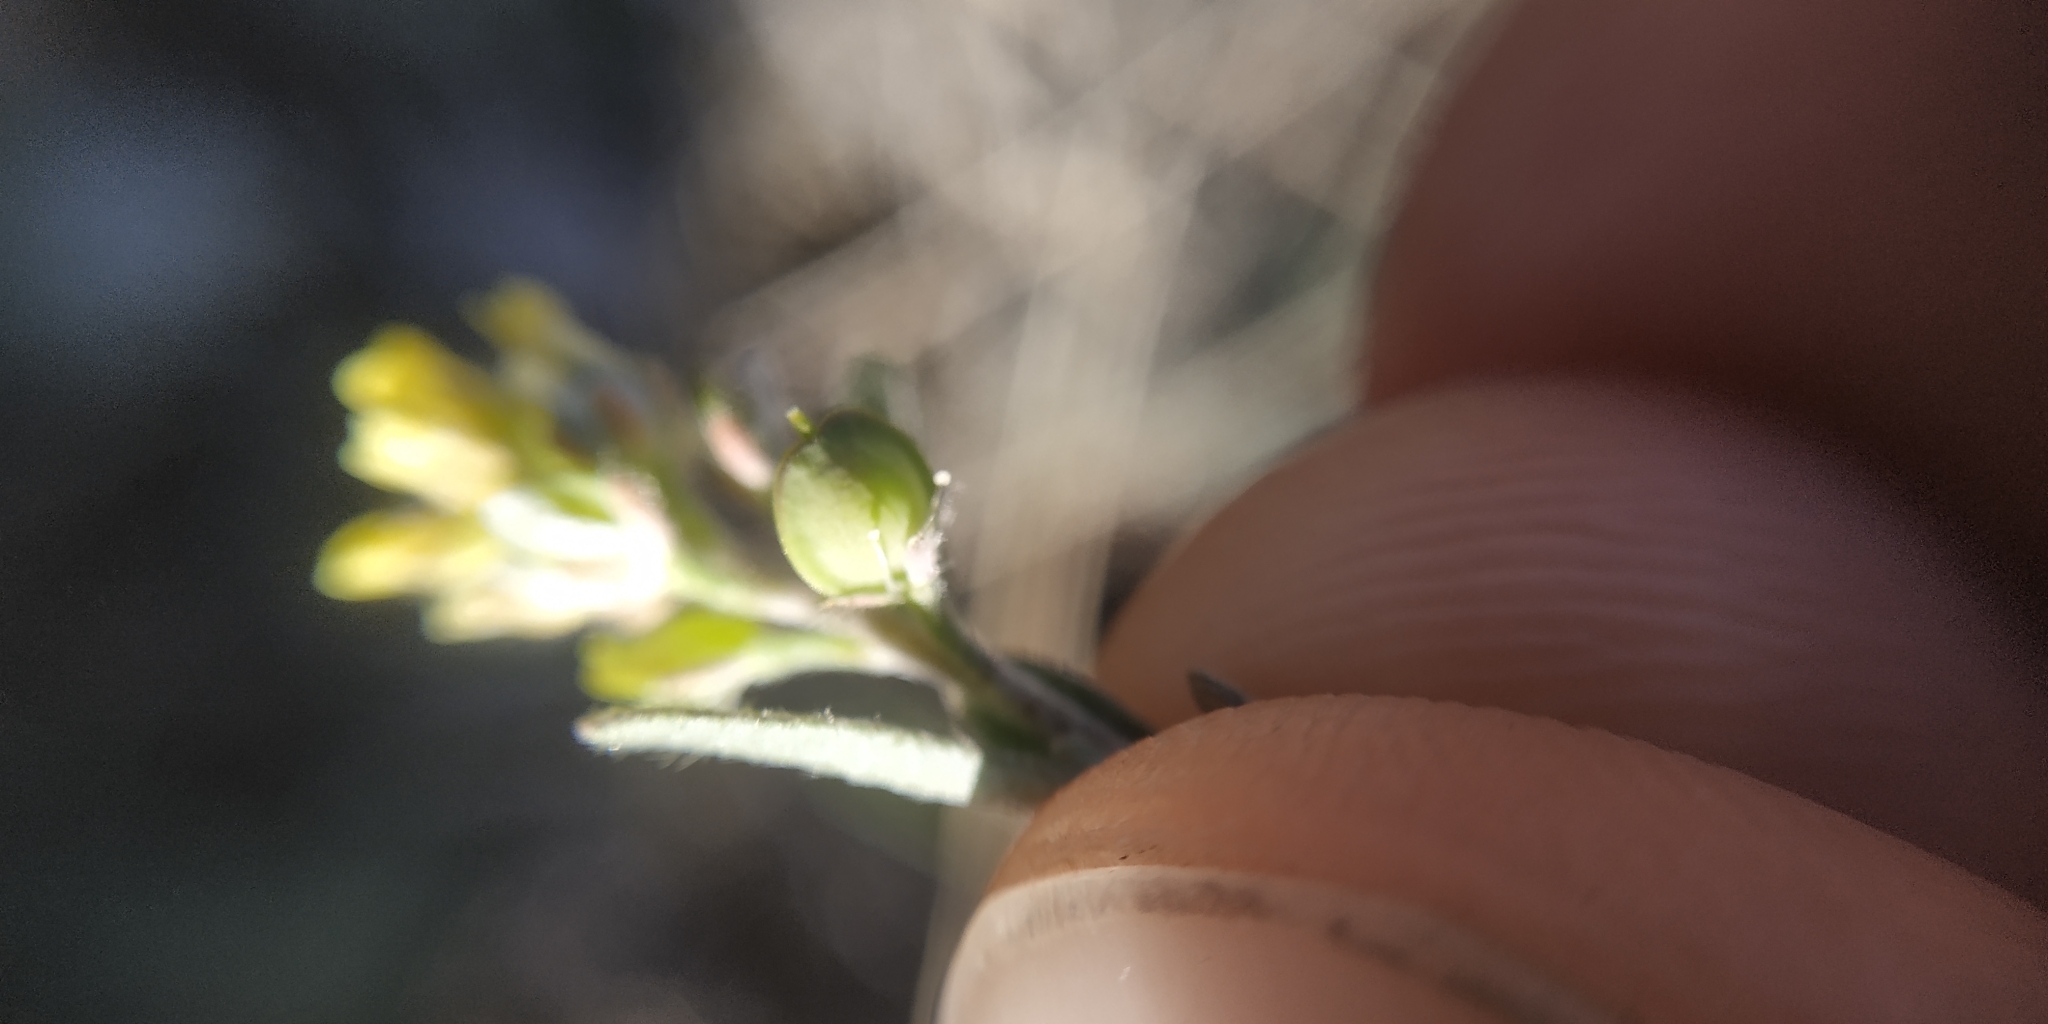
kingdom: Plantae
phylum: Tracheophyta
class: Magnoliopsida
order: Brassicales
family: Brassicaceae
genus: Alyssum
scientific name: Alyssum turkestanicum
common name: Desert alyssum
